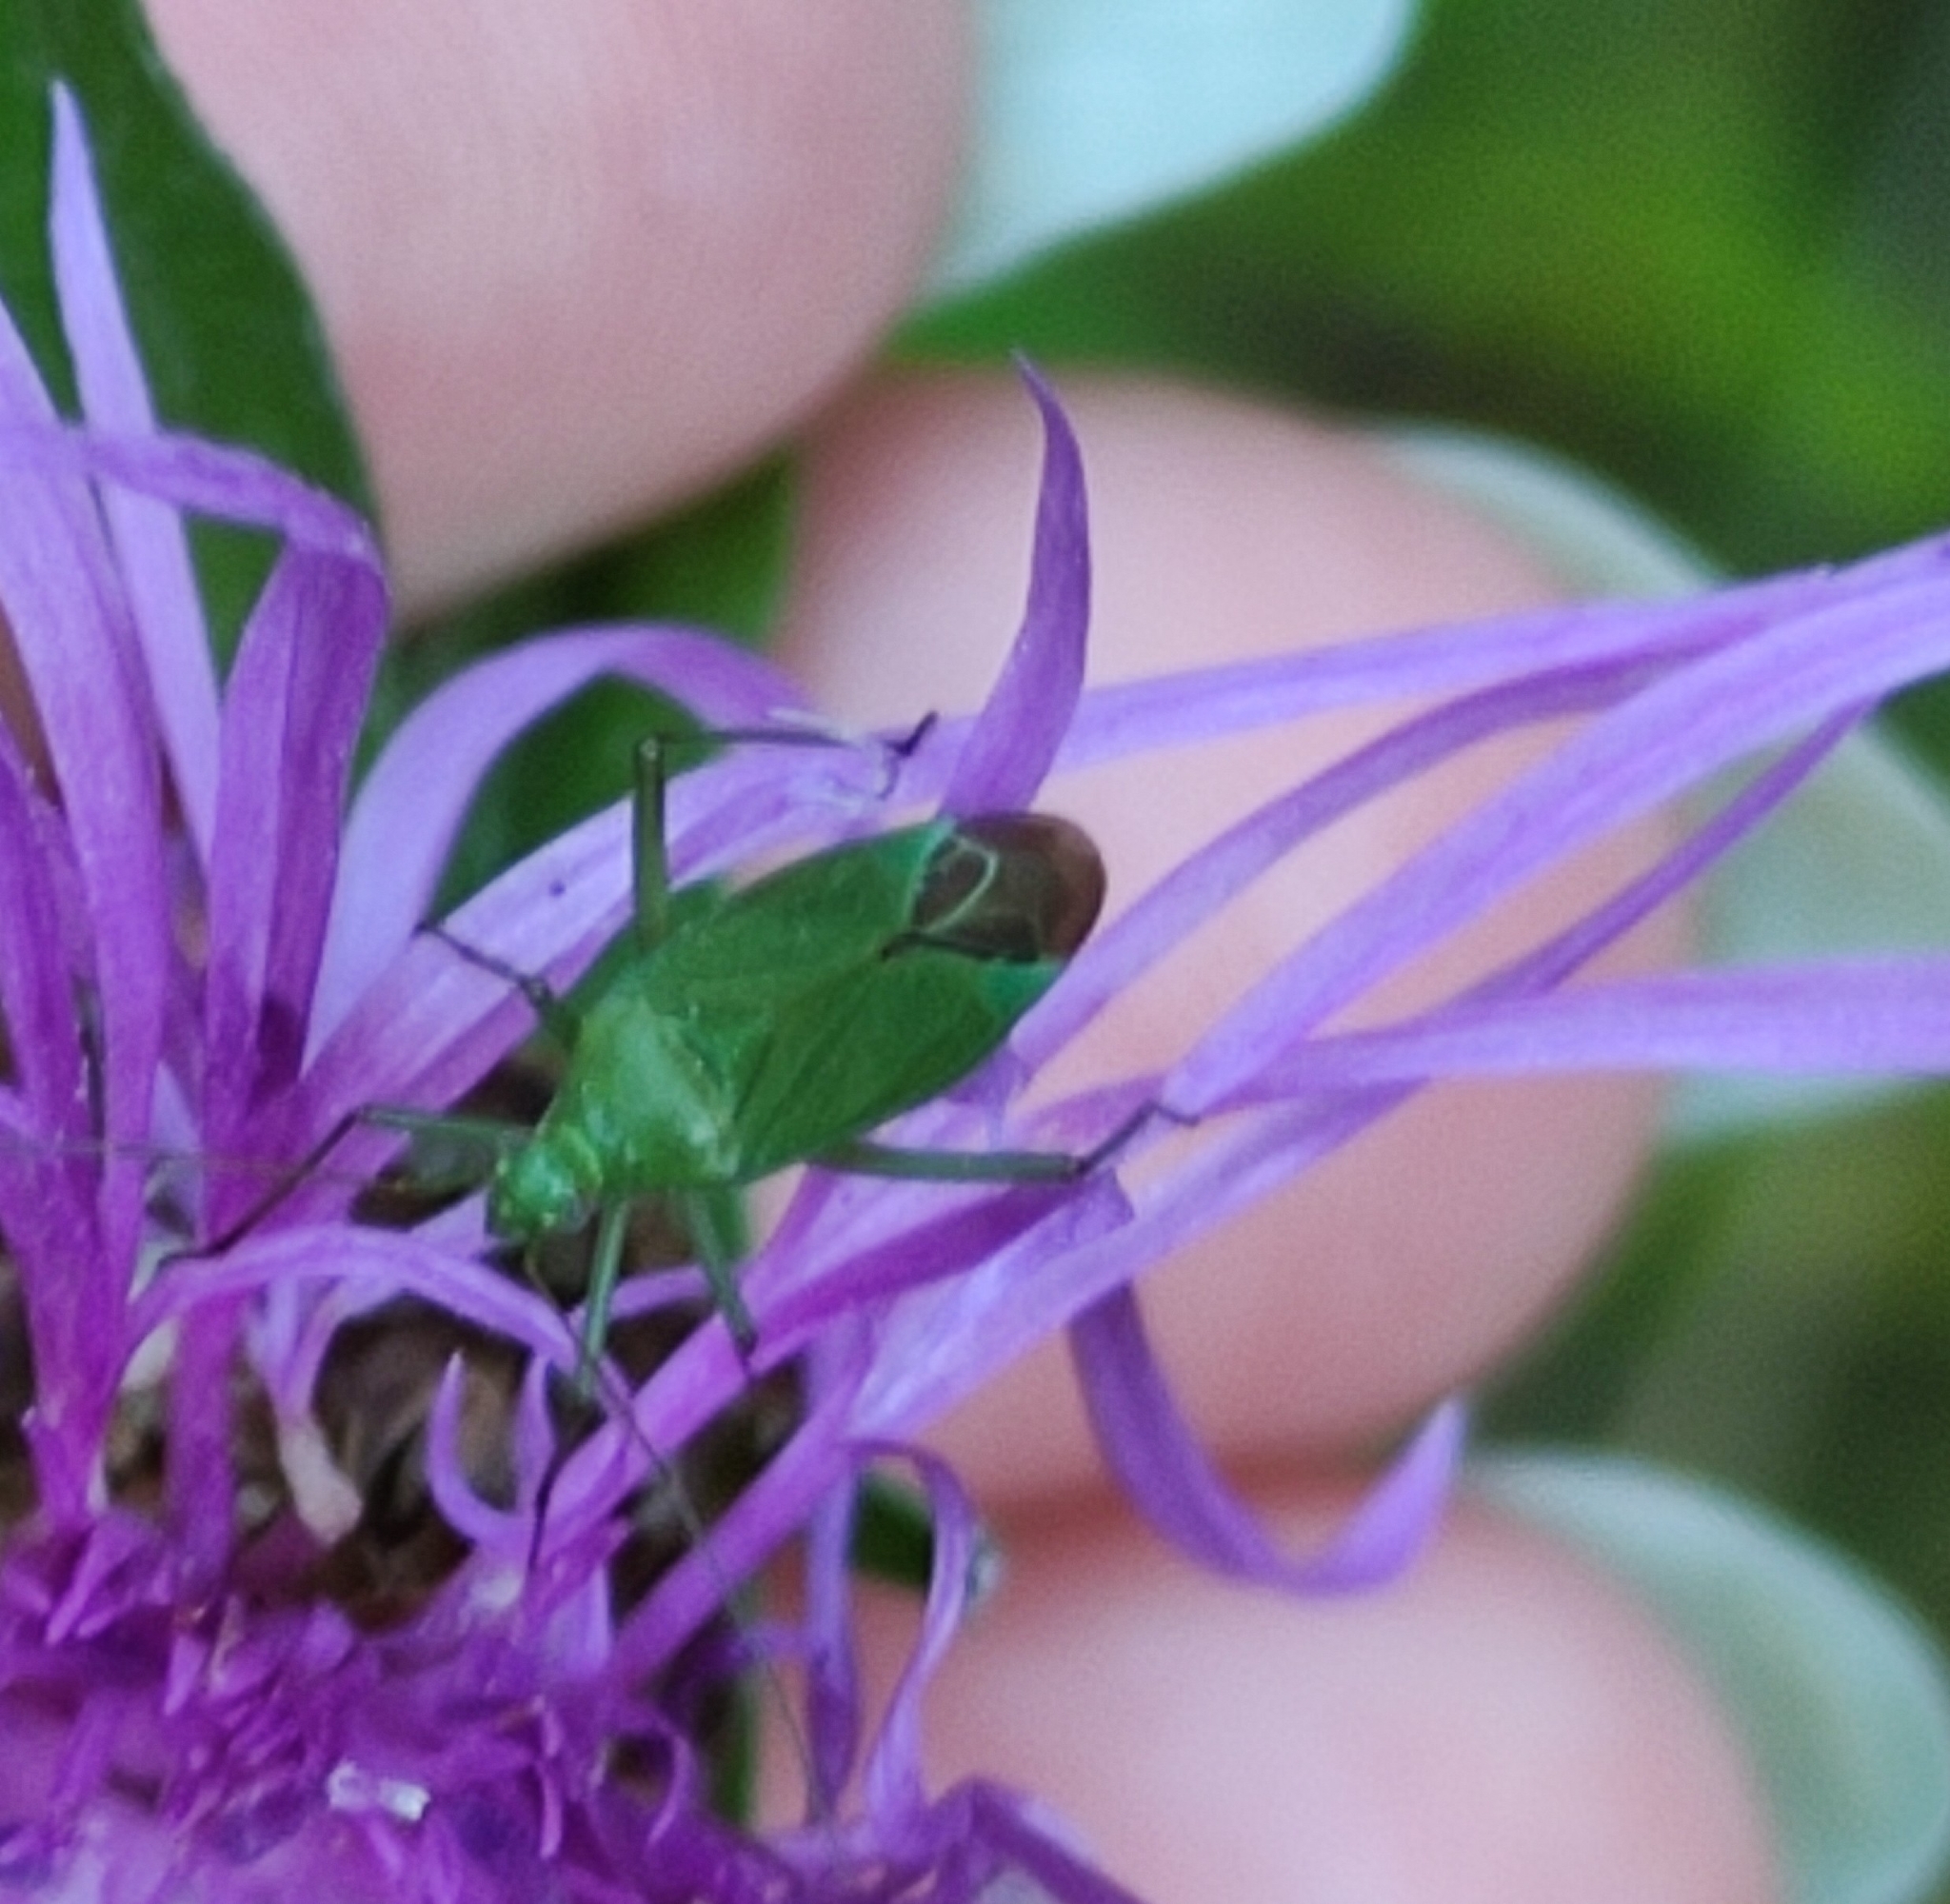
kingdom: Animalia
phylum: Arthropoda
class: Insecta
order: Hemiptera
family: Miridae
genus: Calocoris
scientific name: Calocoris affinis
